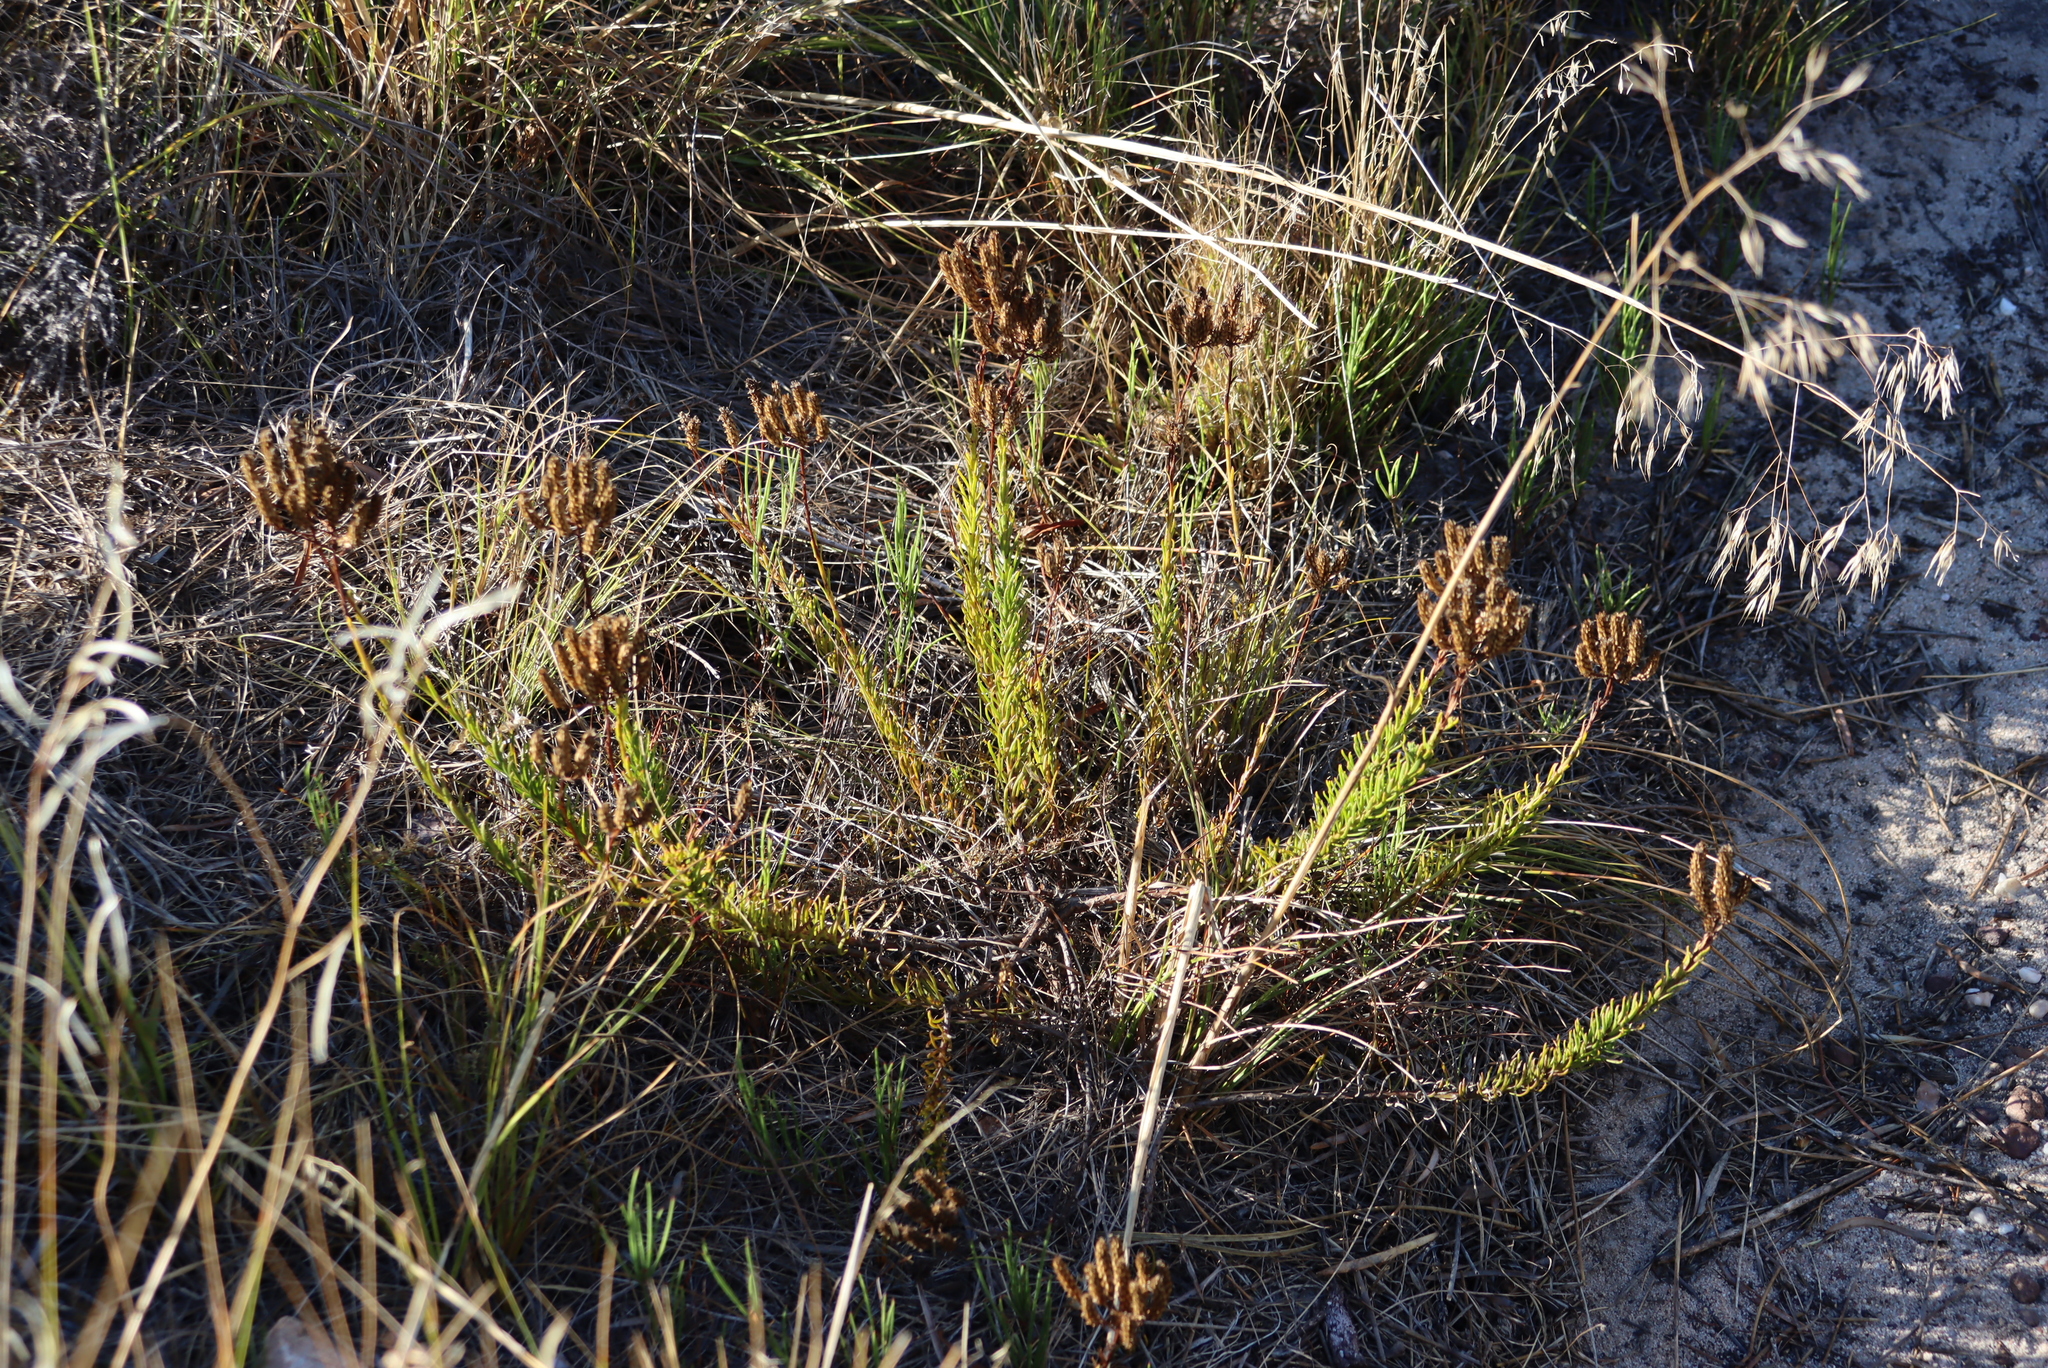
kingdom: Plantae
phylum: Tracheophyta
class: Magnoliopsida
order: Lamiales
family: Scrophulariaceae
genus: Pseudoselago
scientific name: Pseudoselago spuria
